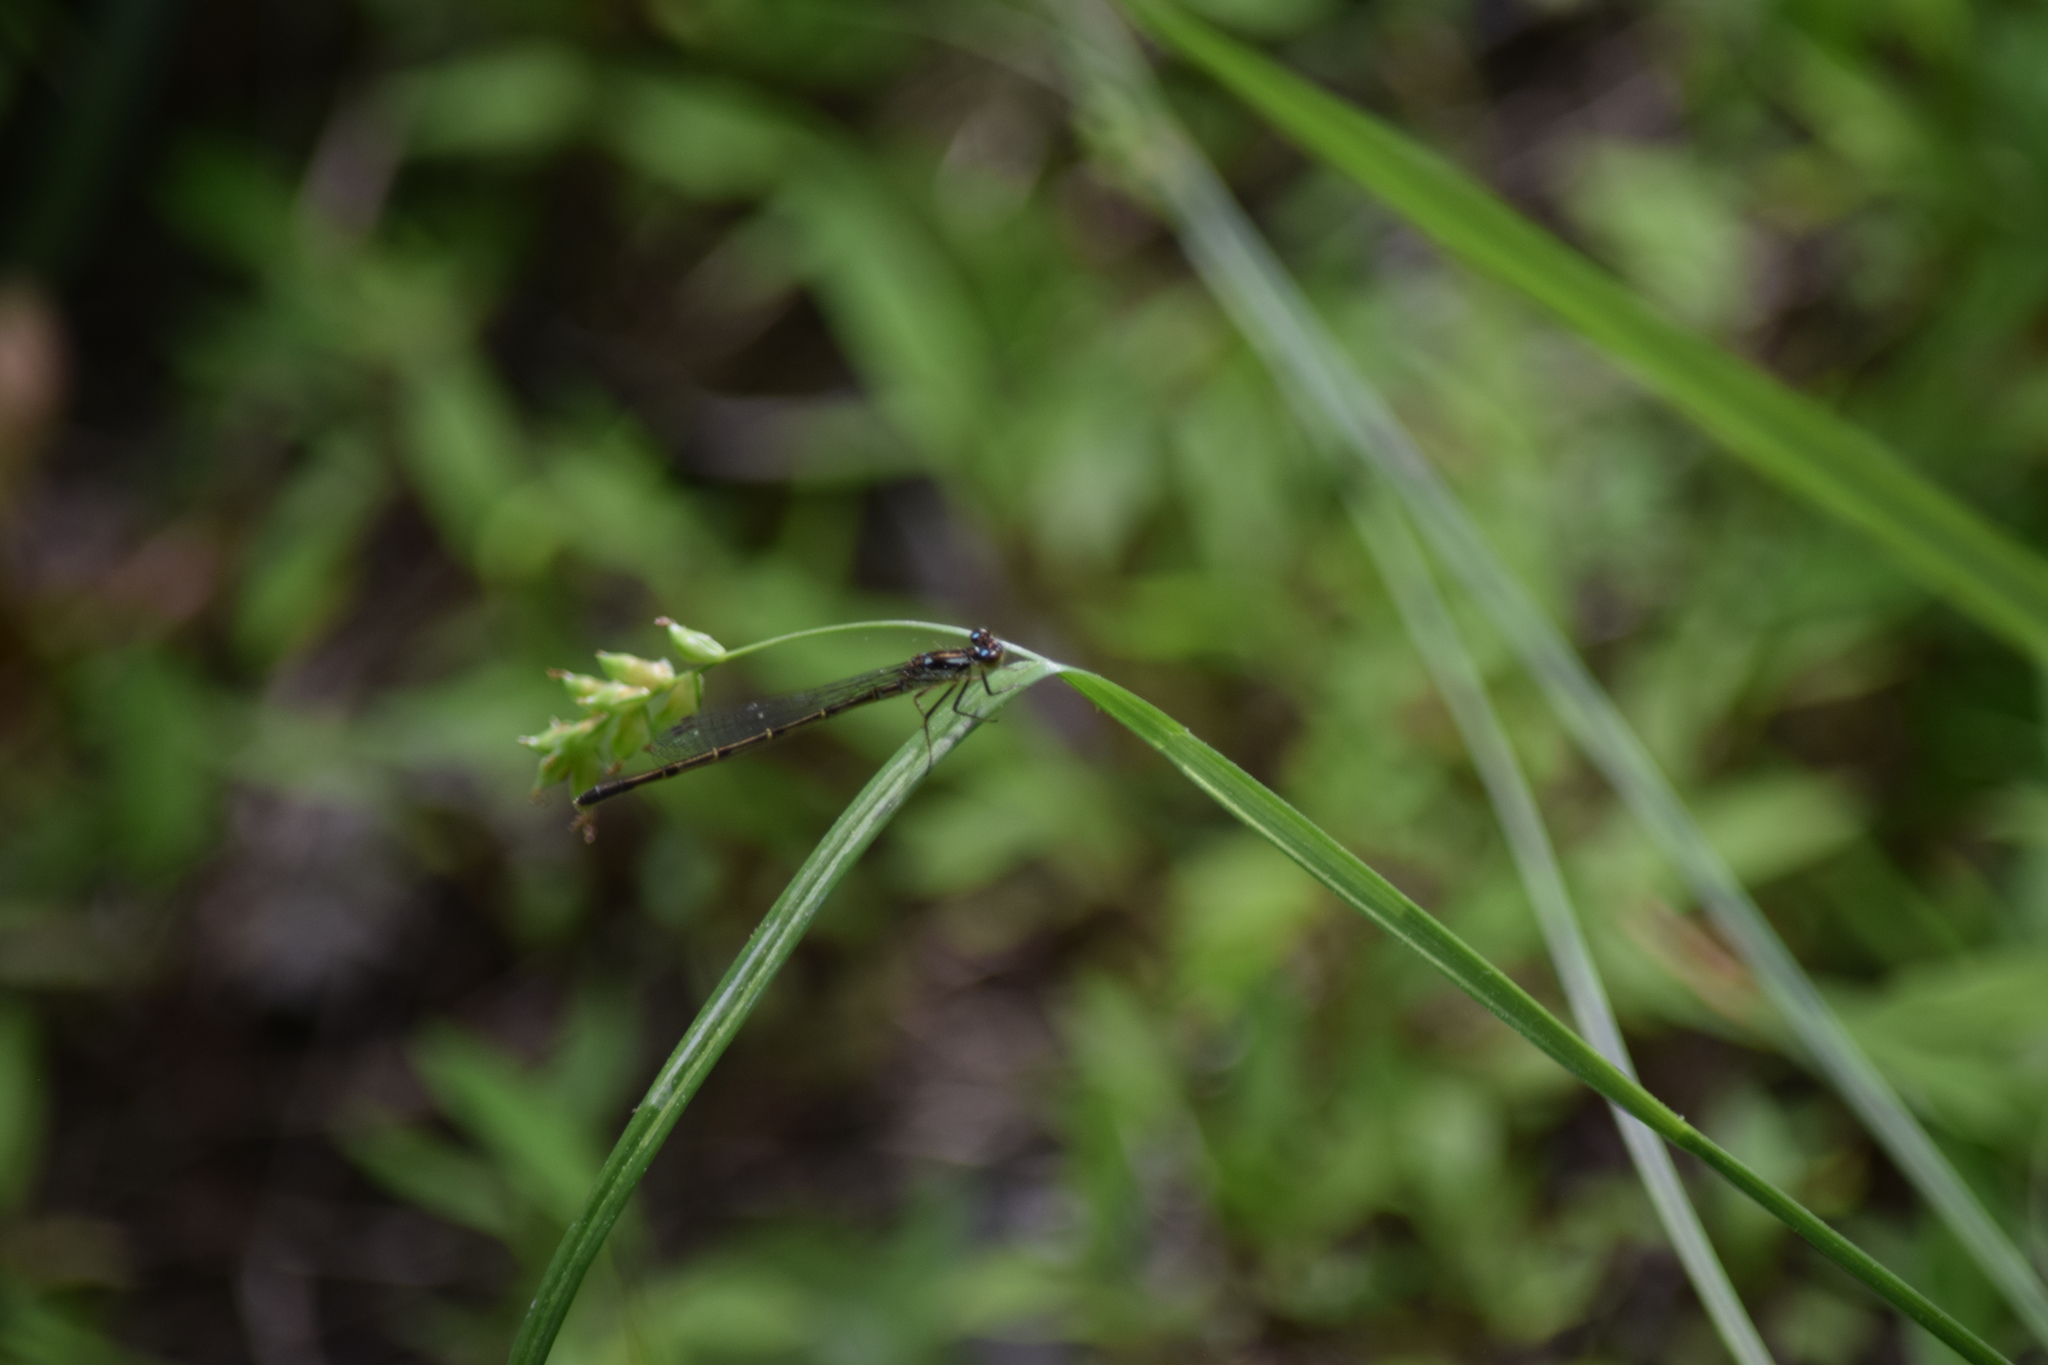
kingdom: Animalia
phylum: Arthropoda
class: Insecta
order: Odonata
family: Coenagrionidae
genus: Ischnura
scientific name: Ischnura posita
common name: Fragile forktail
